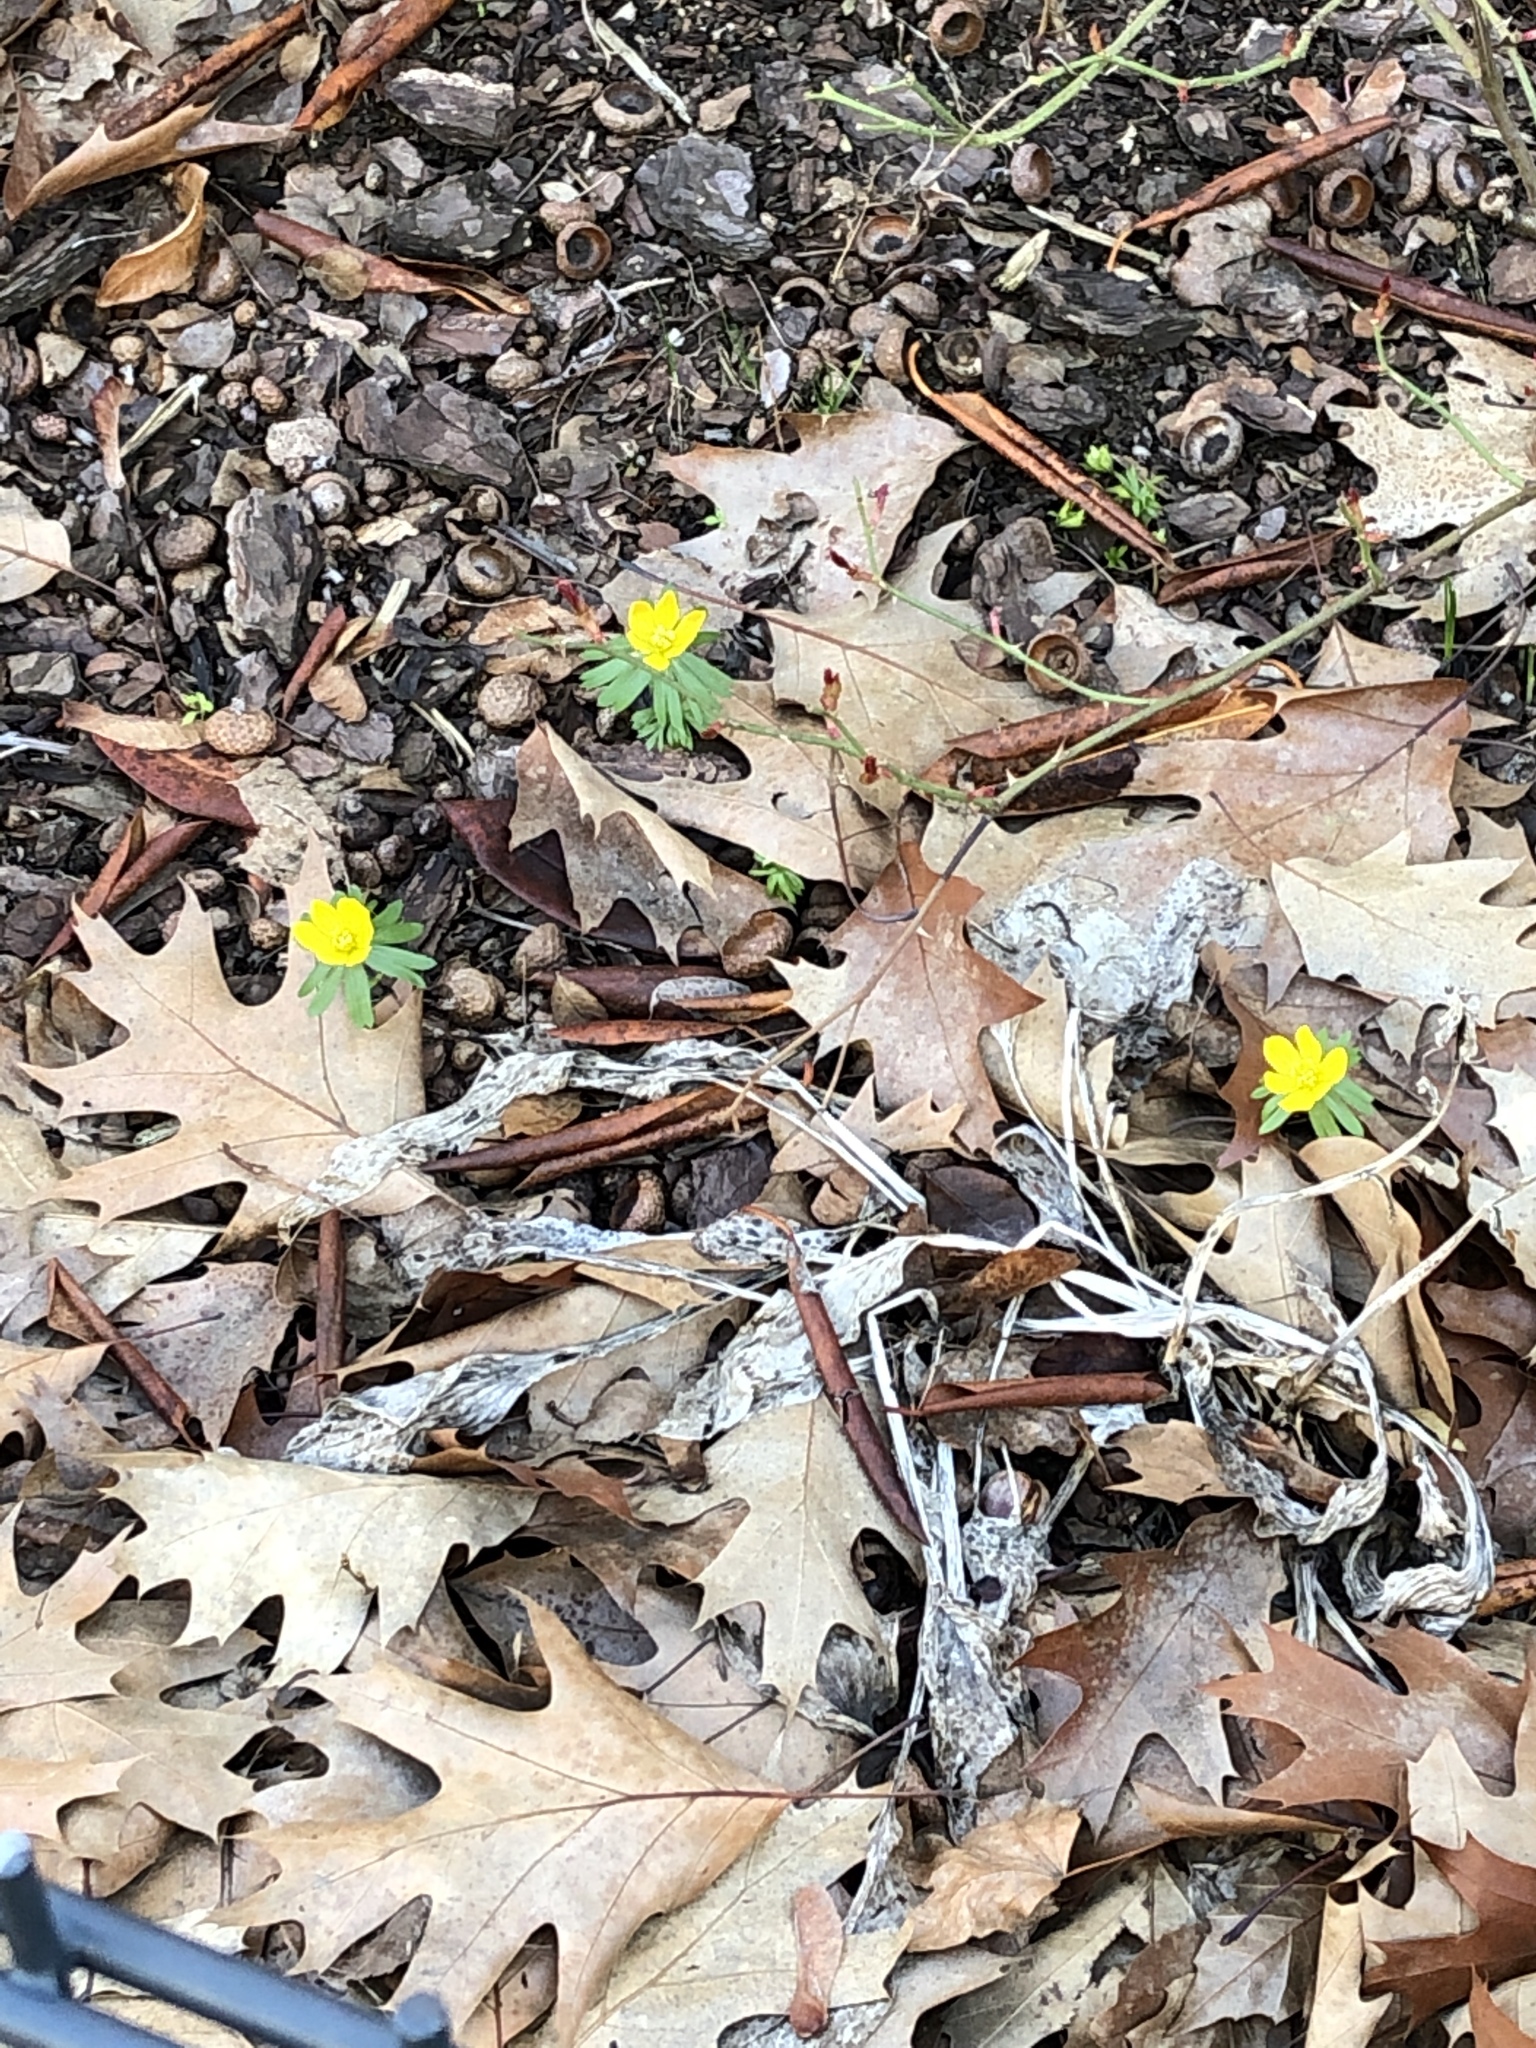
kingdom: Plantae
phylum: Tracheophyta
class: Magnoliopsida
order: Ranunculales
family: Ranunculaceae
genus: Eranthis
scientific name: Eranthis hyemalis
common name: Winter aconite
